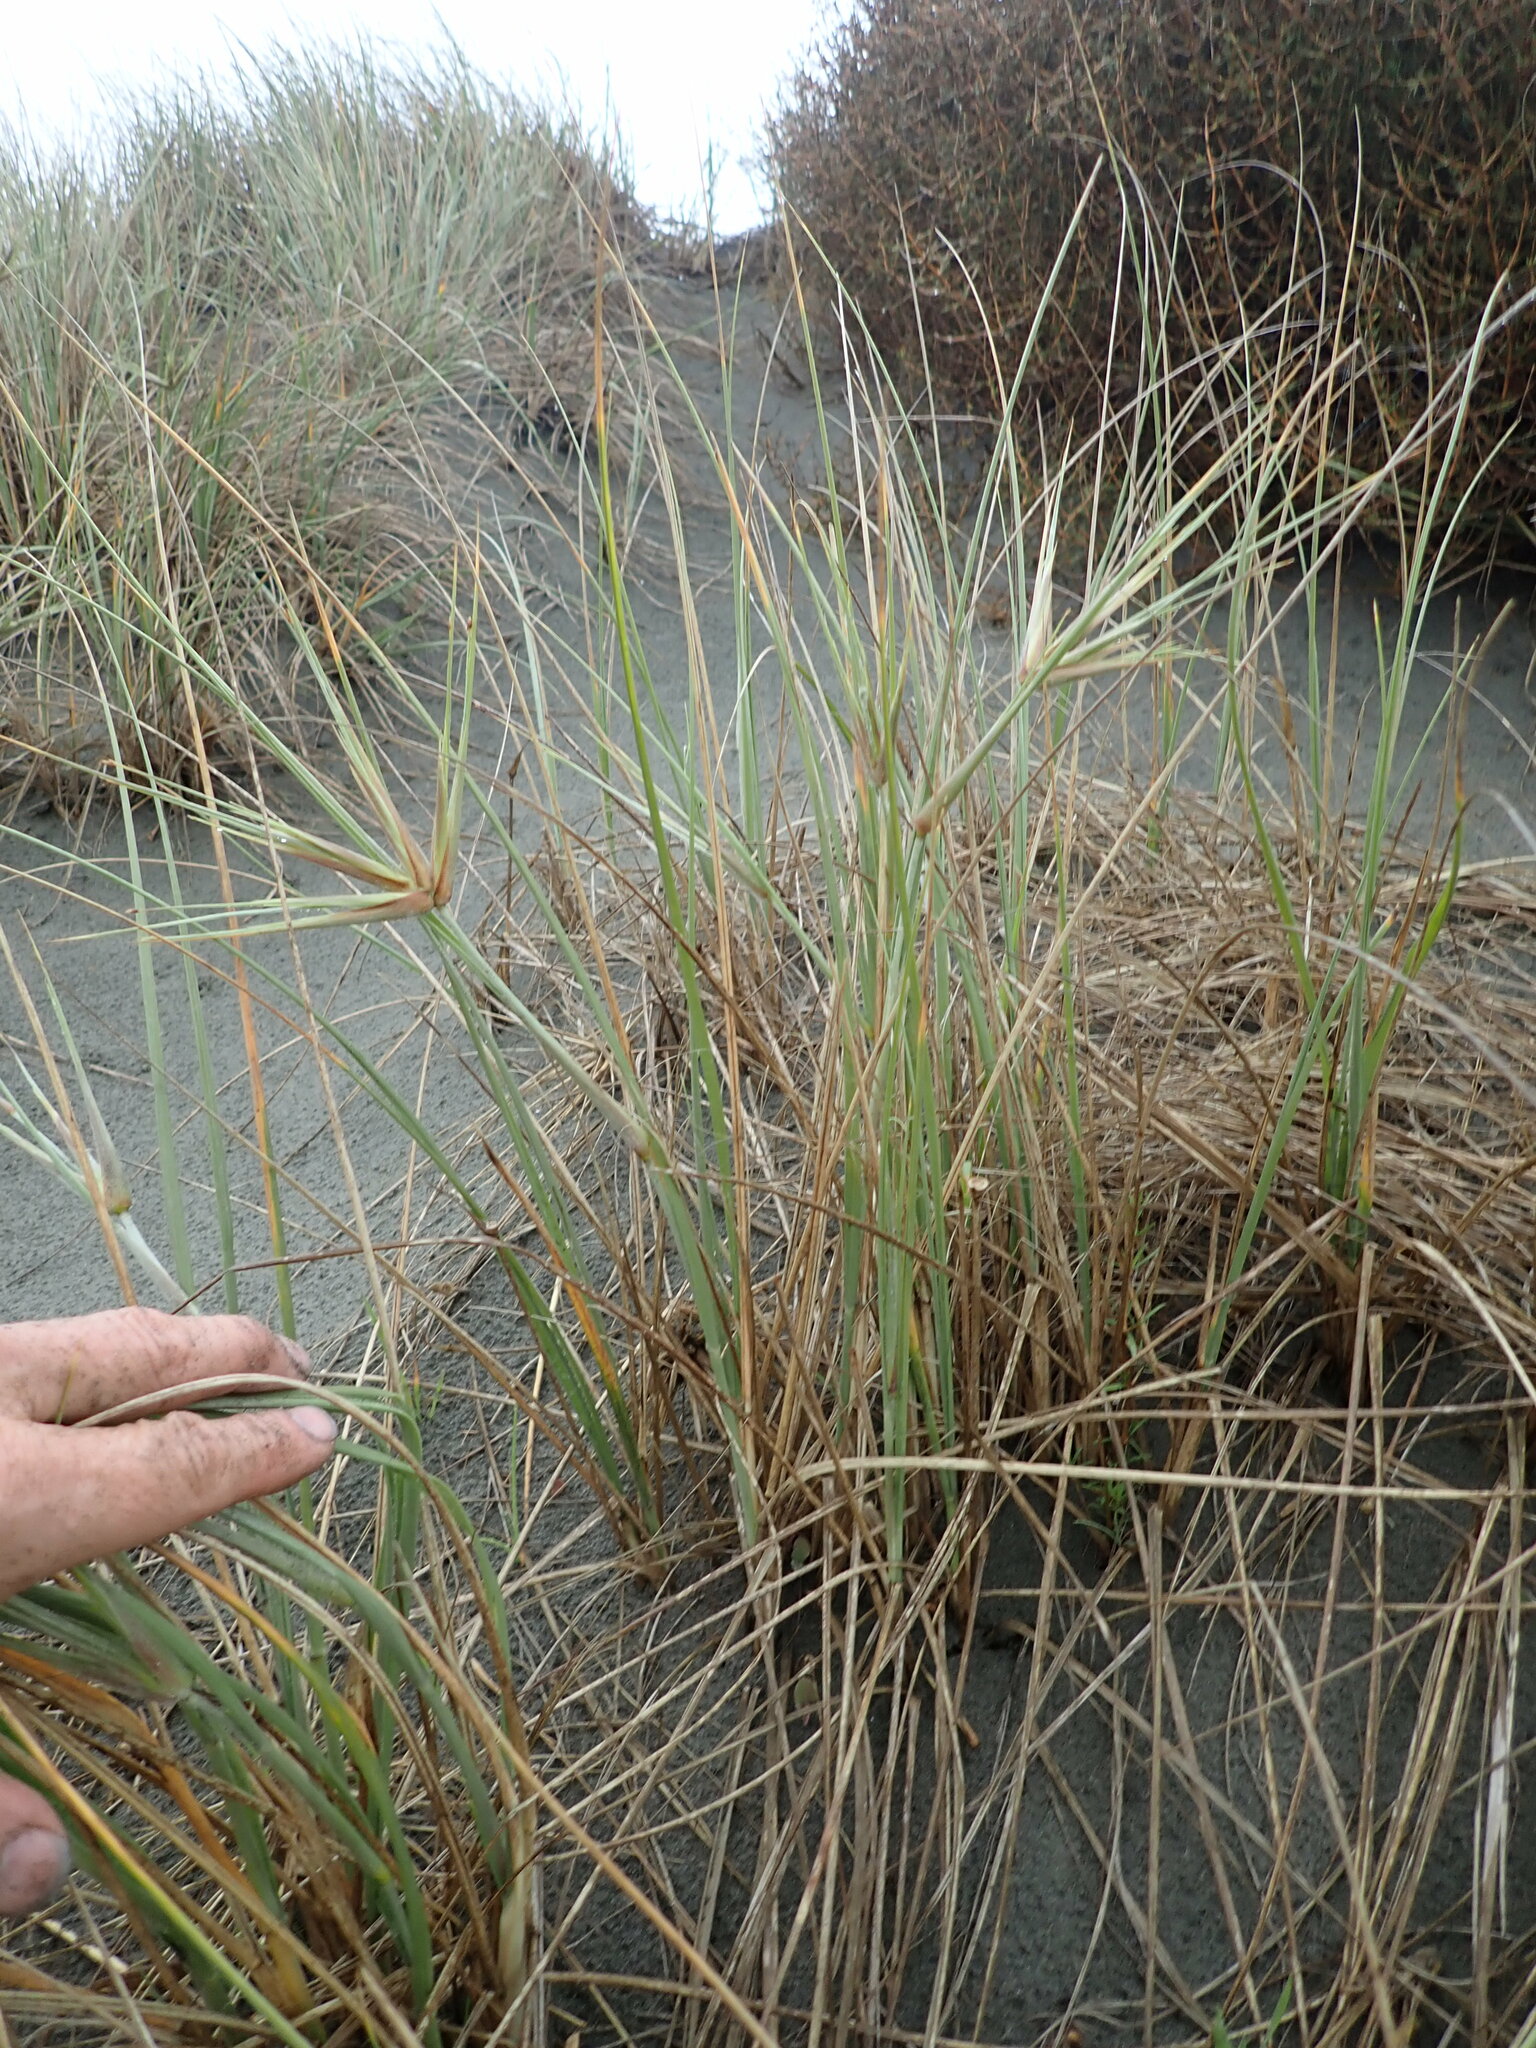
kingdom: Plantae
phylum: Tracheophyta
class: Liliopsida
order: Poales
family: Poaceae
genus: Spinifex
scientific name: Spinifex sericeus
